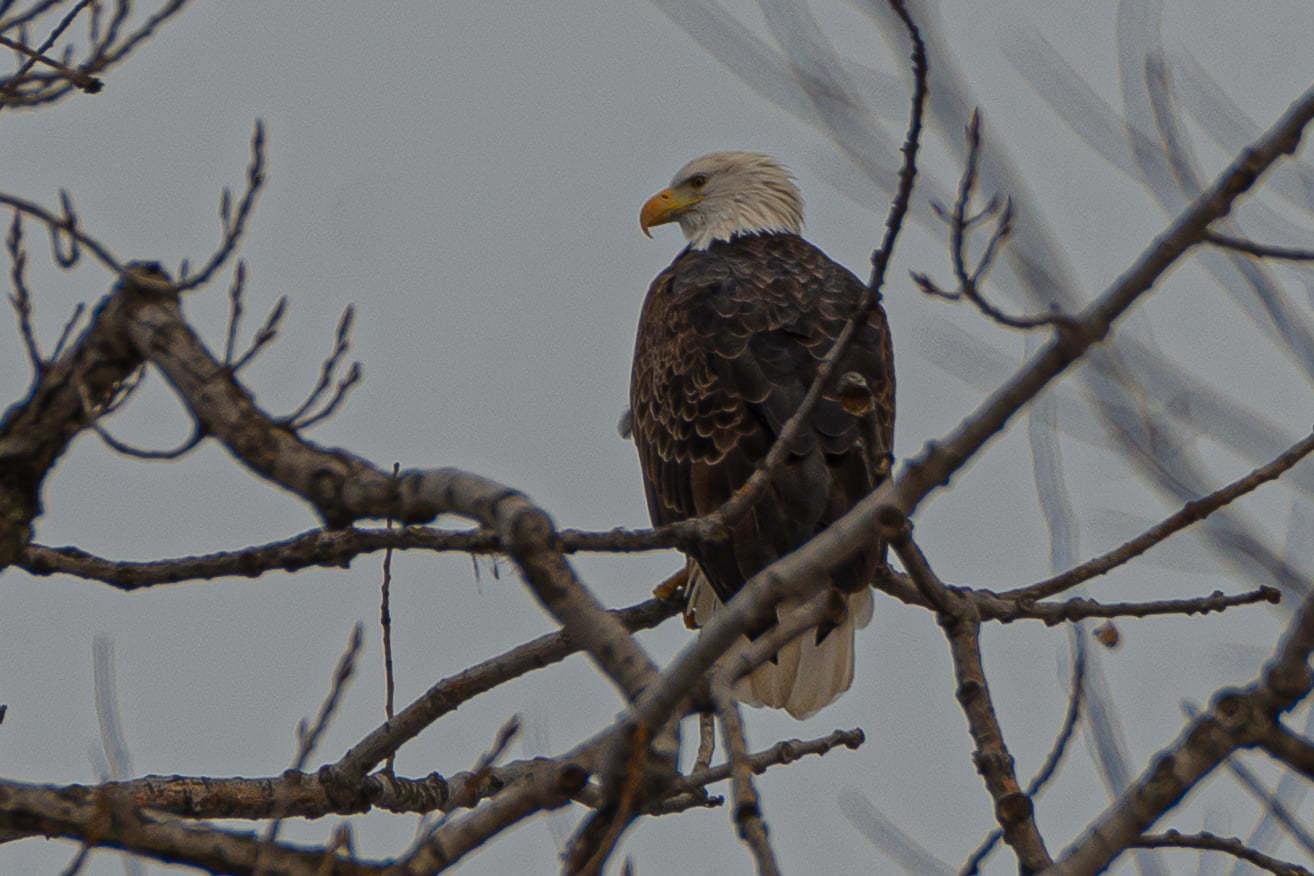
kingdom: Animalia
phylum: Chordata
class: Aves
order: Accipitriformes
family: Accipitridae
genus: Haliaeetus
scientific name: Haliaeetus leucocephalus
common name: Bald eagle
